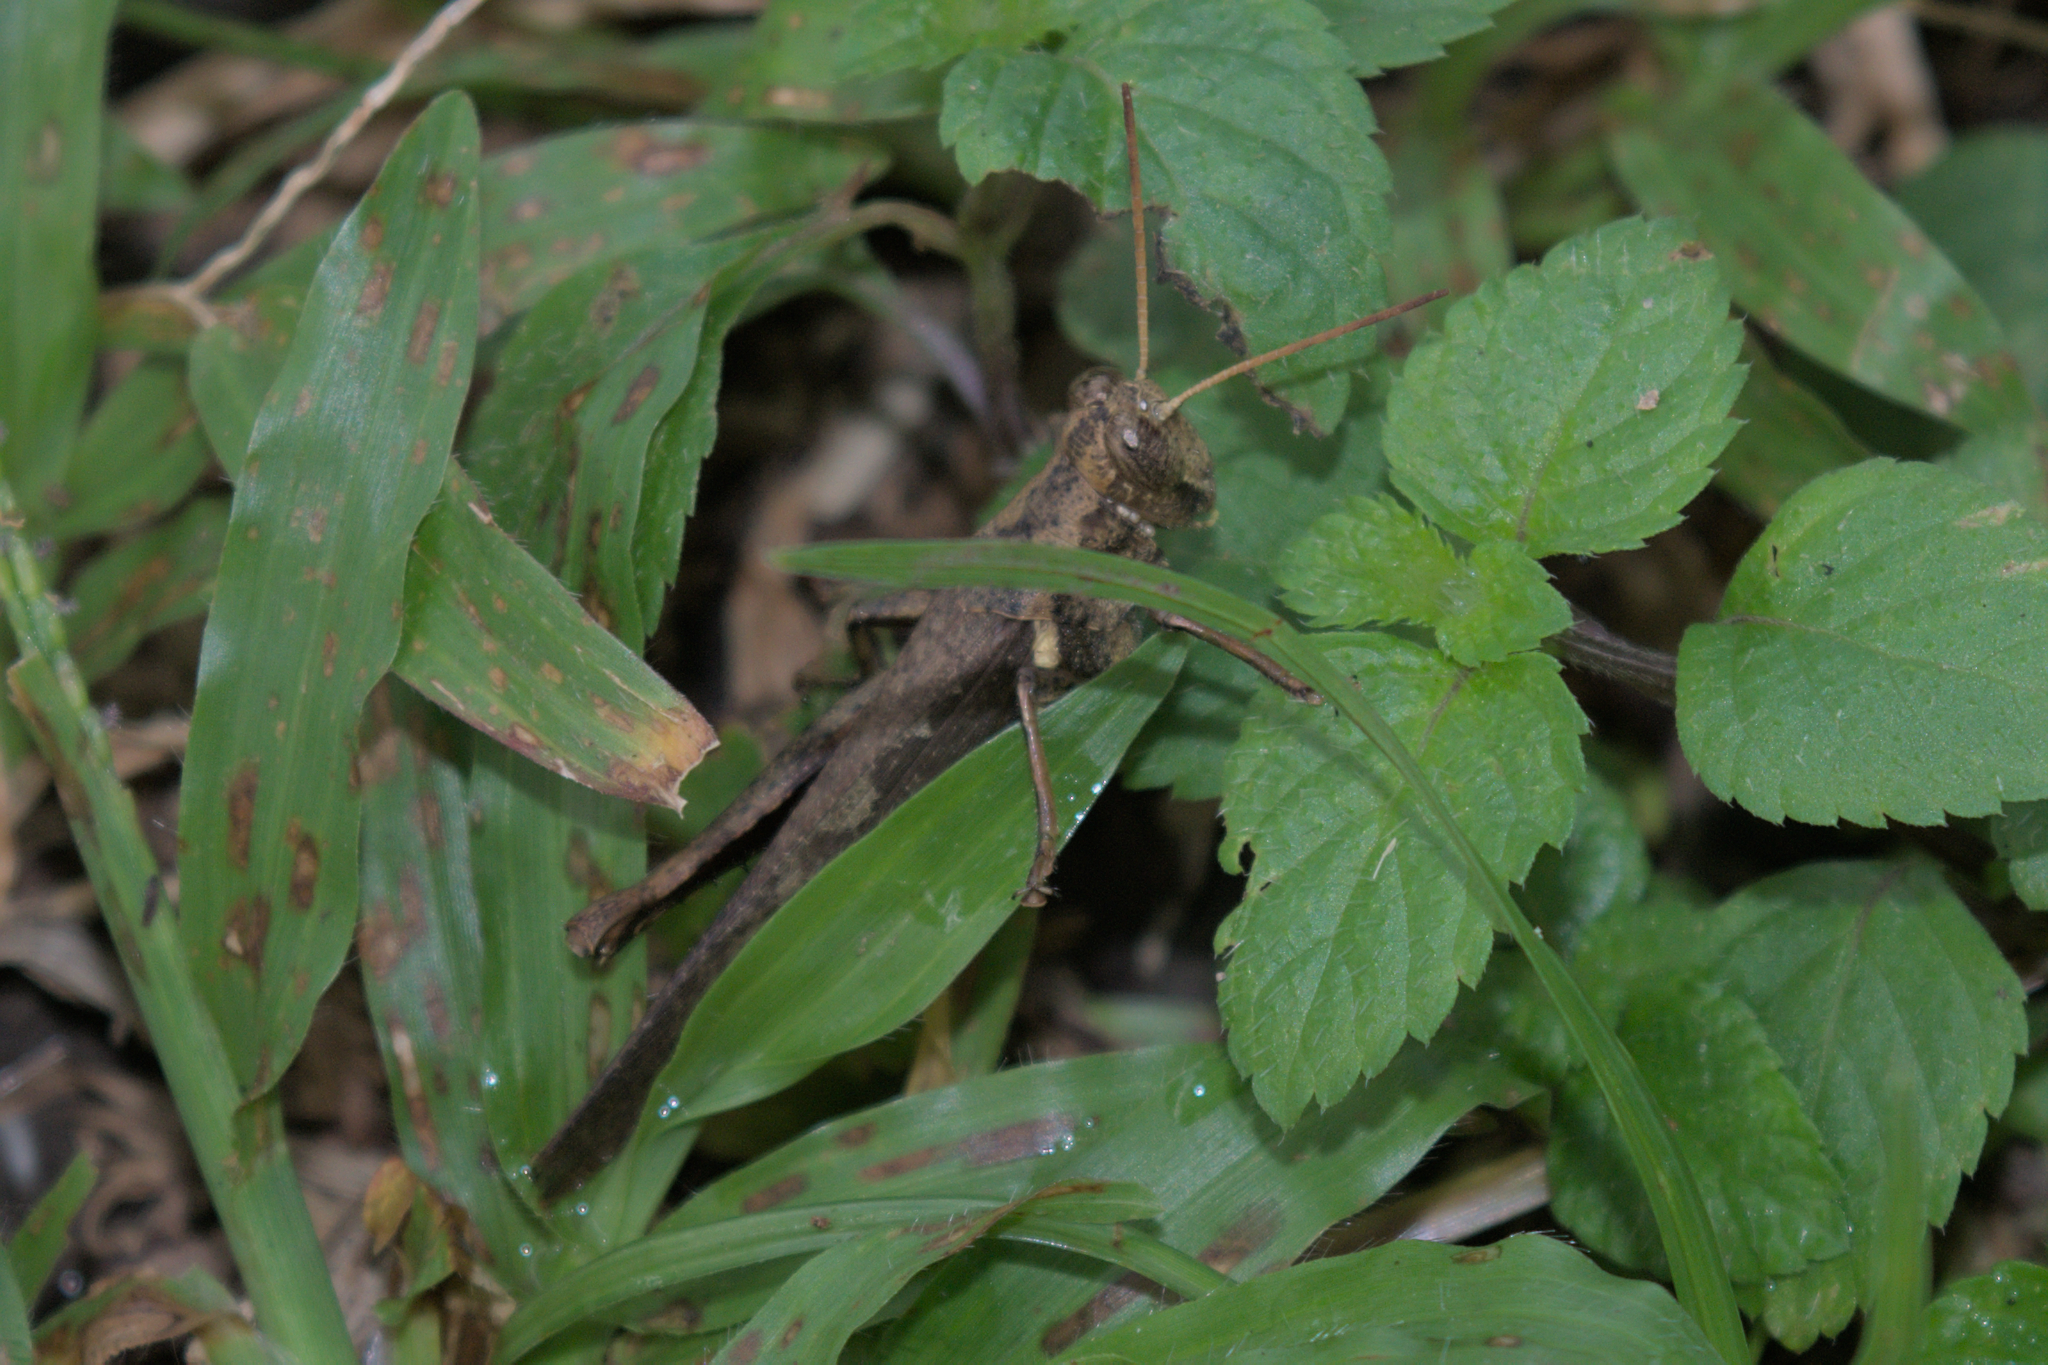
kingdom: Animalia
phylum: Arthropoda
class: Insecta
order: Orthoptera
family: Acrididae
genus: Abracris
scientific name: Abracris flavolineata
